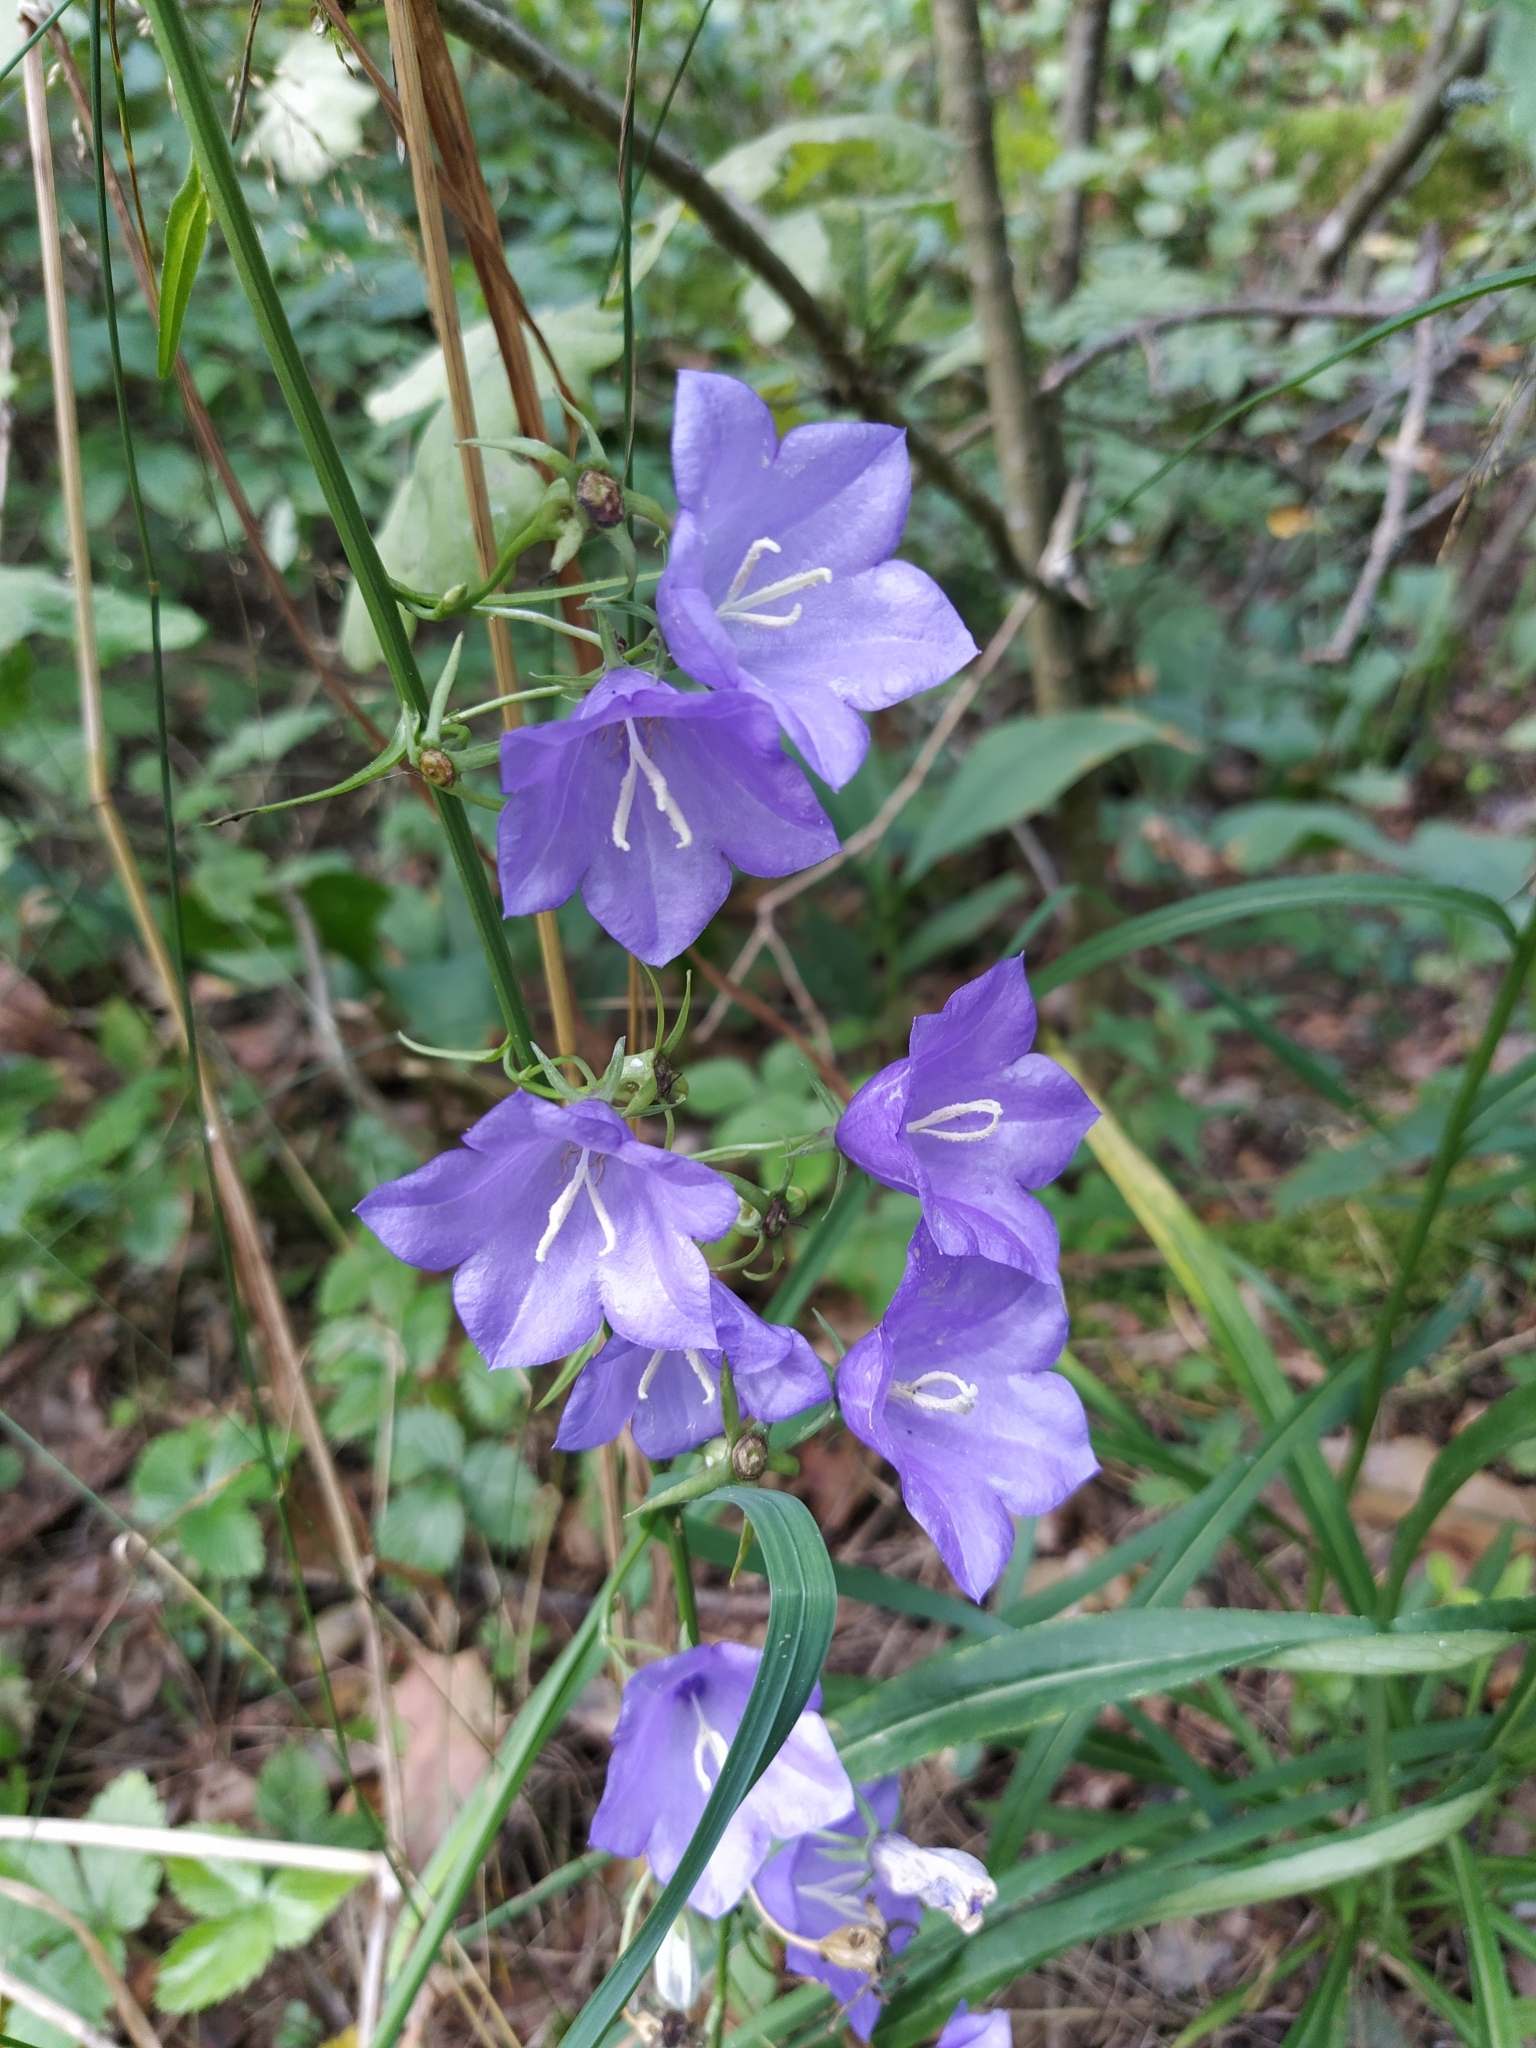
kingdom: Plantae
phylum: Tracheophyta
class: Magnoliopsida
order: Asterales
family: Campanulaceae
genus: Campanula
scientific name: Campanula persicifolia
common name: Peach-leaved bellflower
